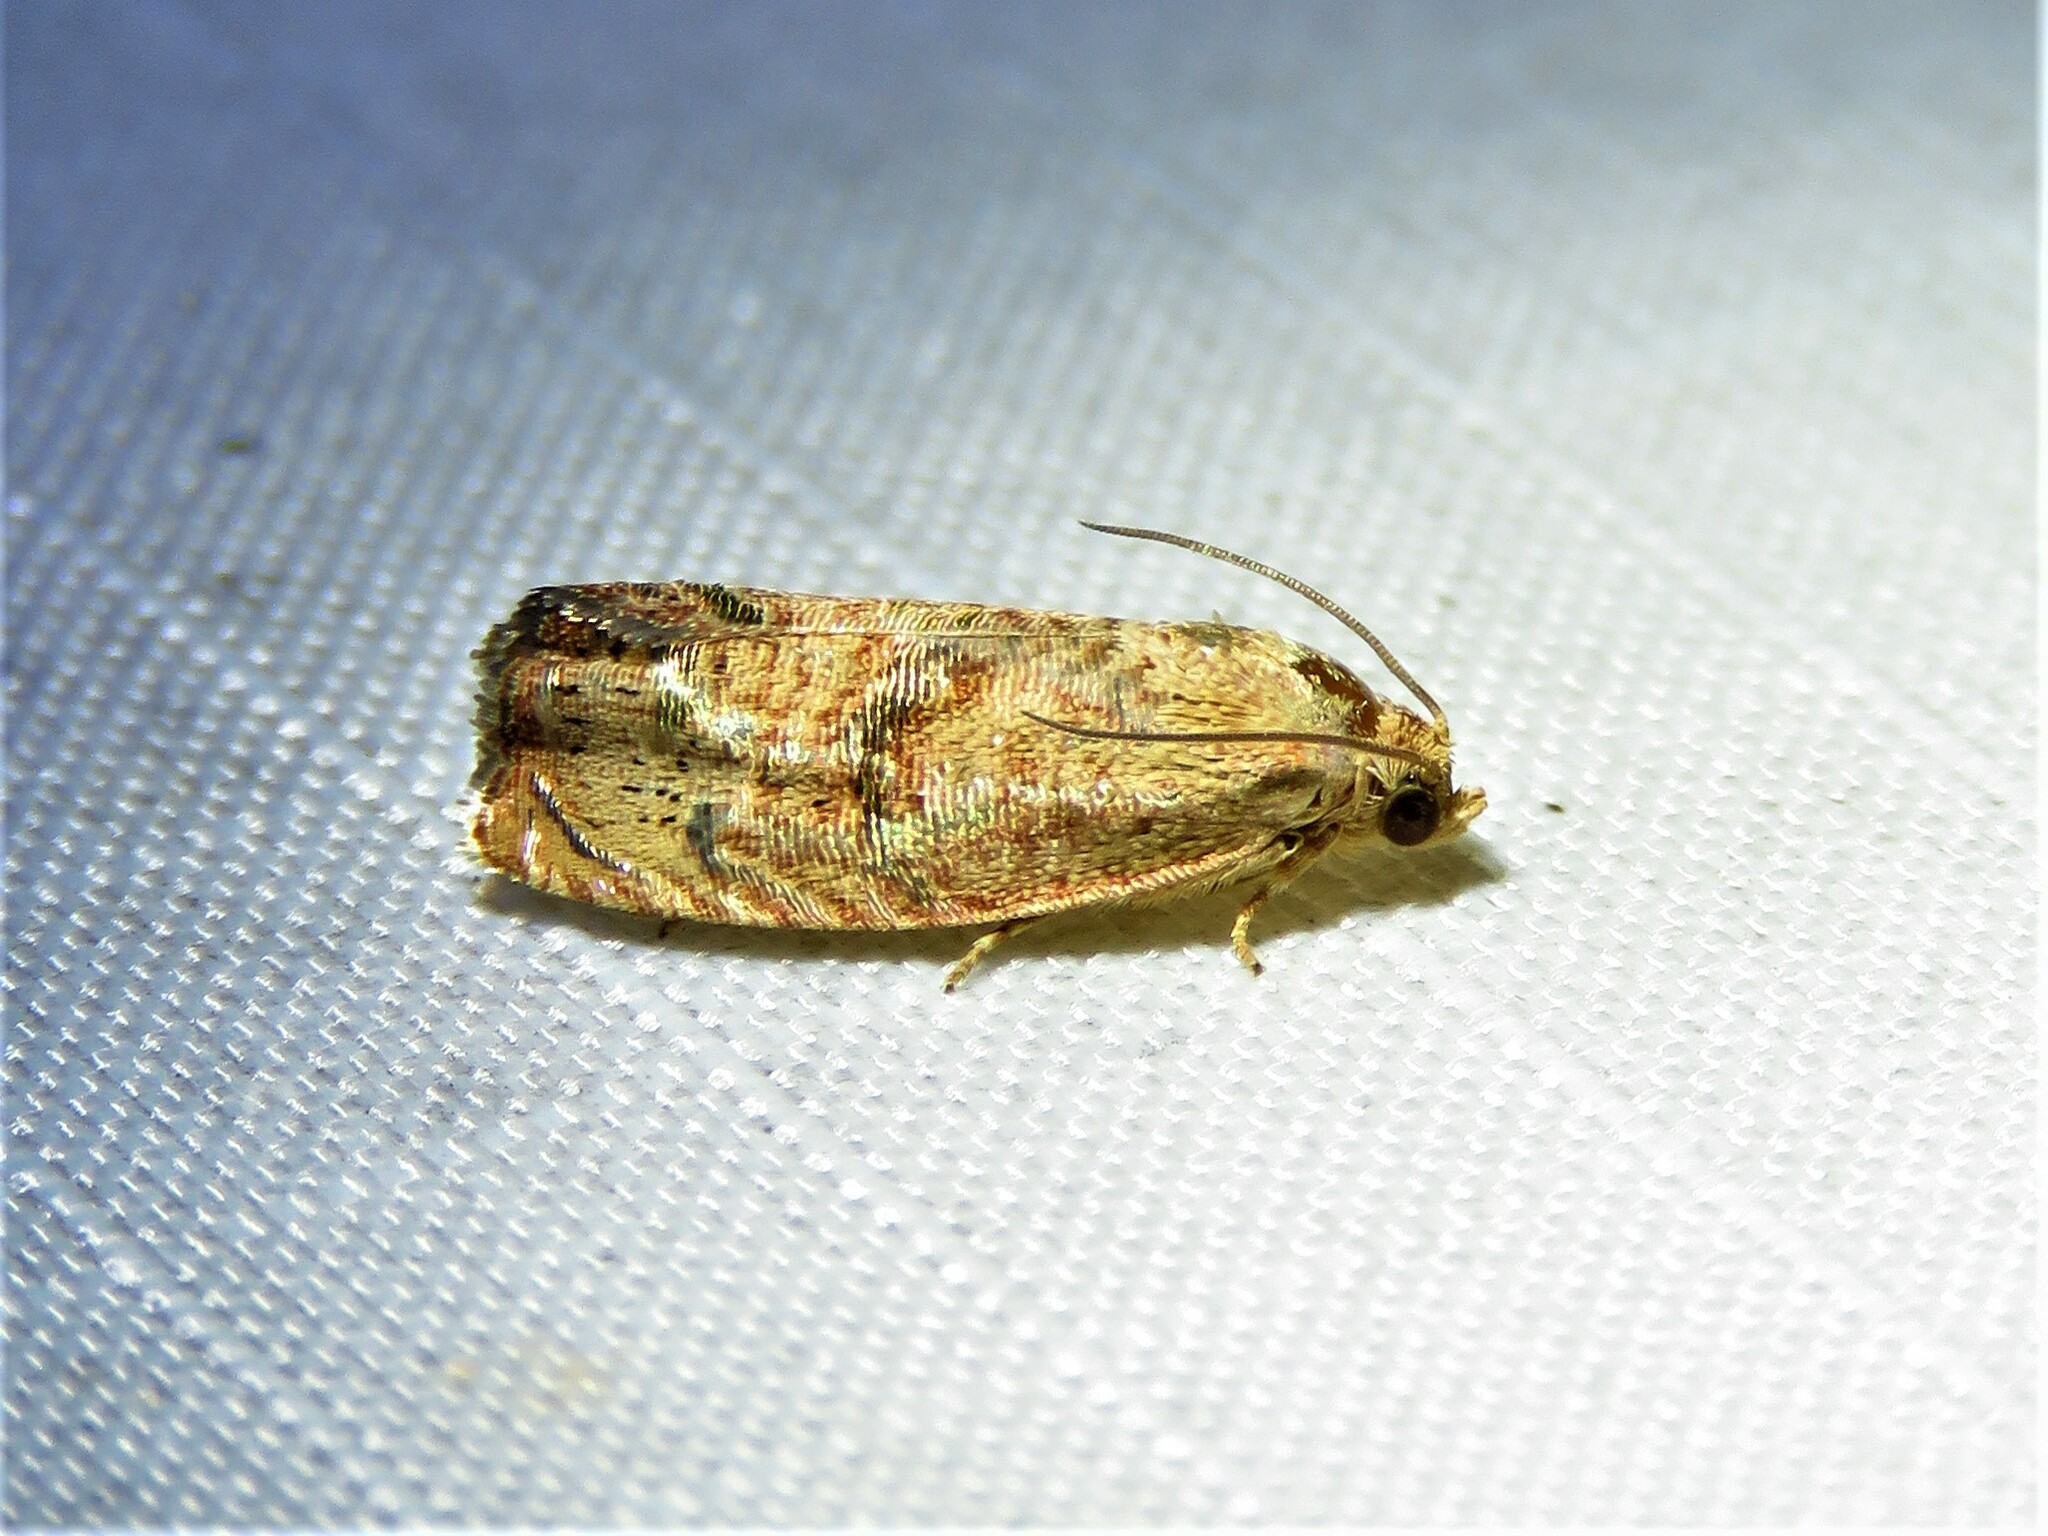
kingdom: Animalia
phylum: Arthropoda
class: Insecta
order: Lepidoptera
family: Tortricidae
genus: Cydia
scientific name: Cydia latiferreana
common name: Filbertworm moth
